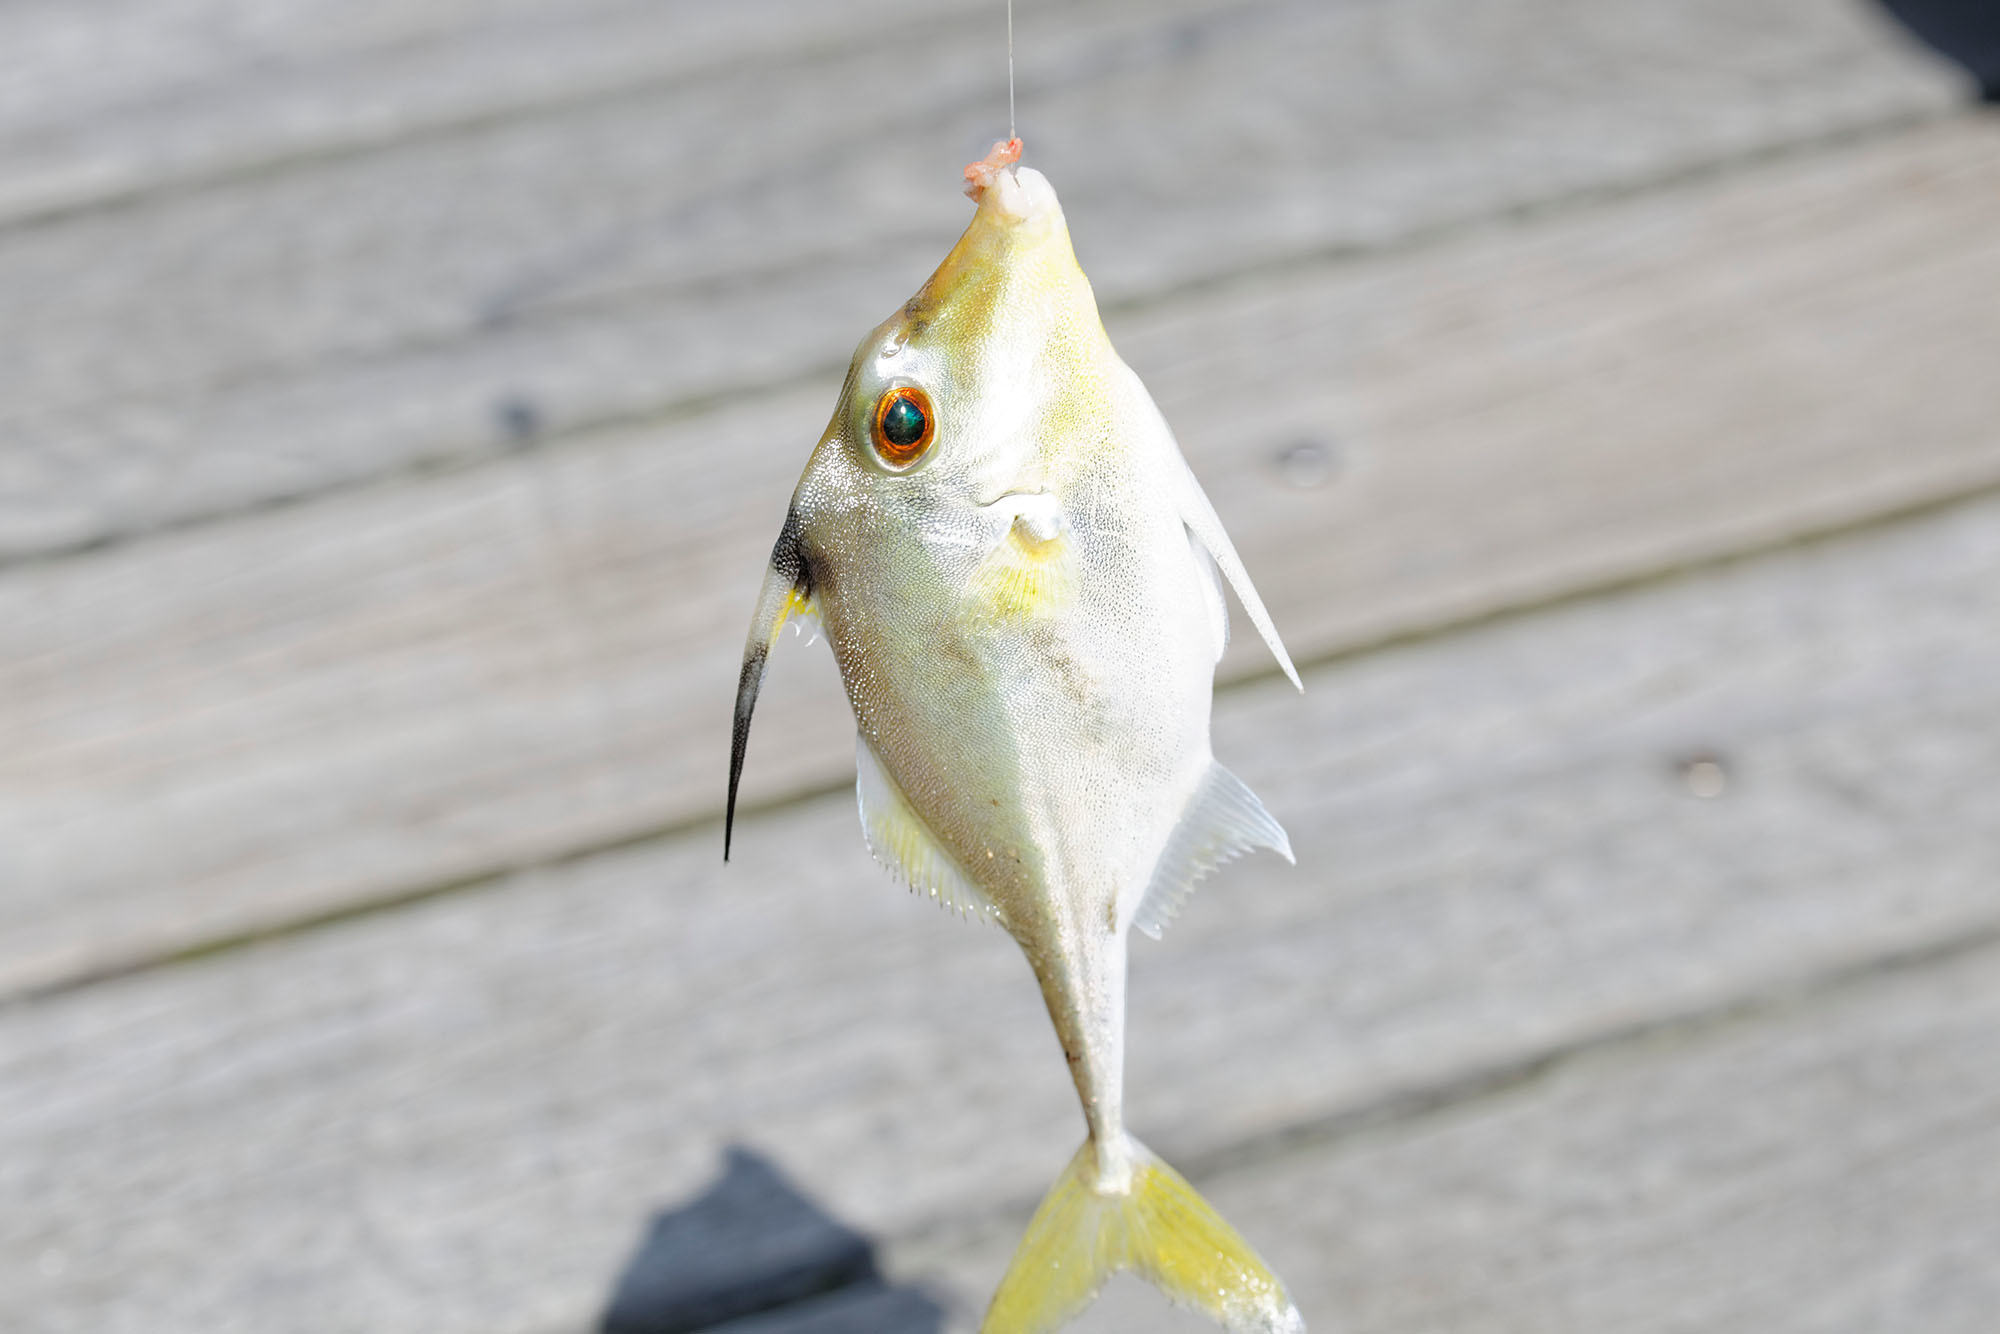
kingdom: Animalia
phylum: Chordata
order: Tetraodontiformes
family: Triacanthidae
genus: Tripodichthys
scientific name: Tripodichthys angustifrons
